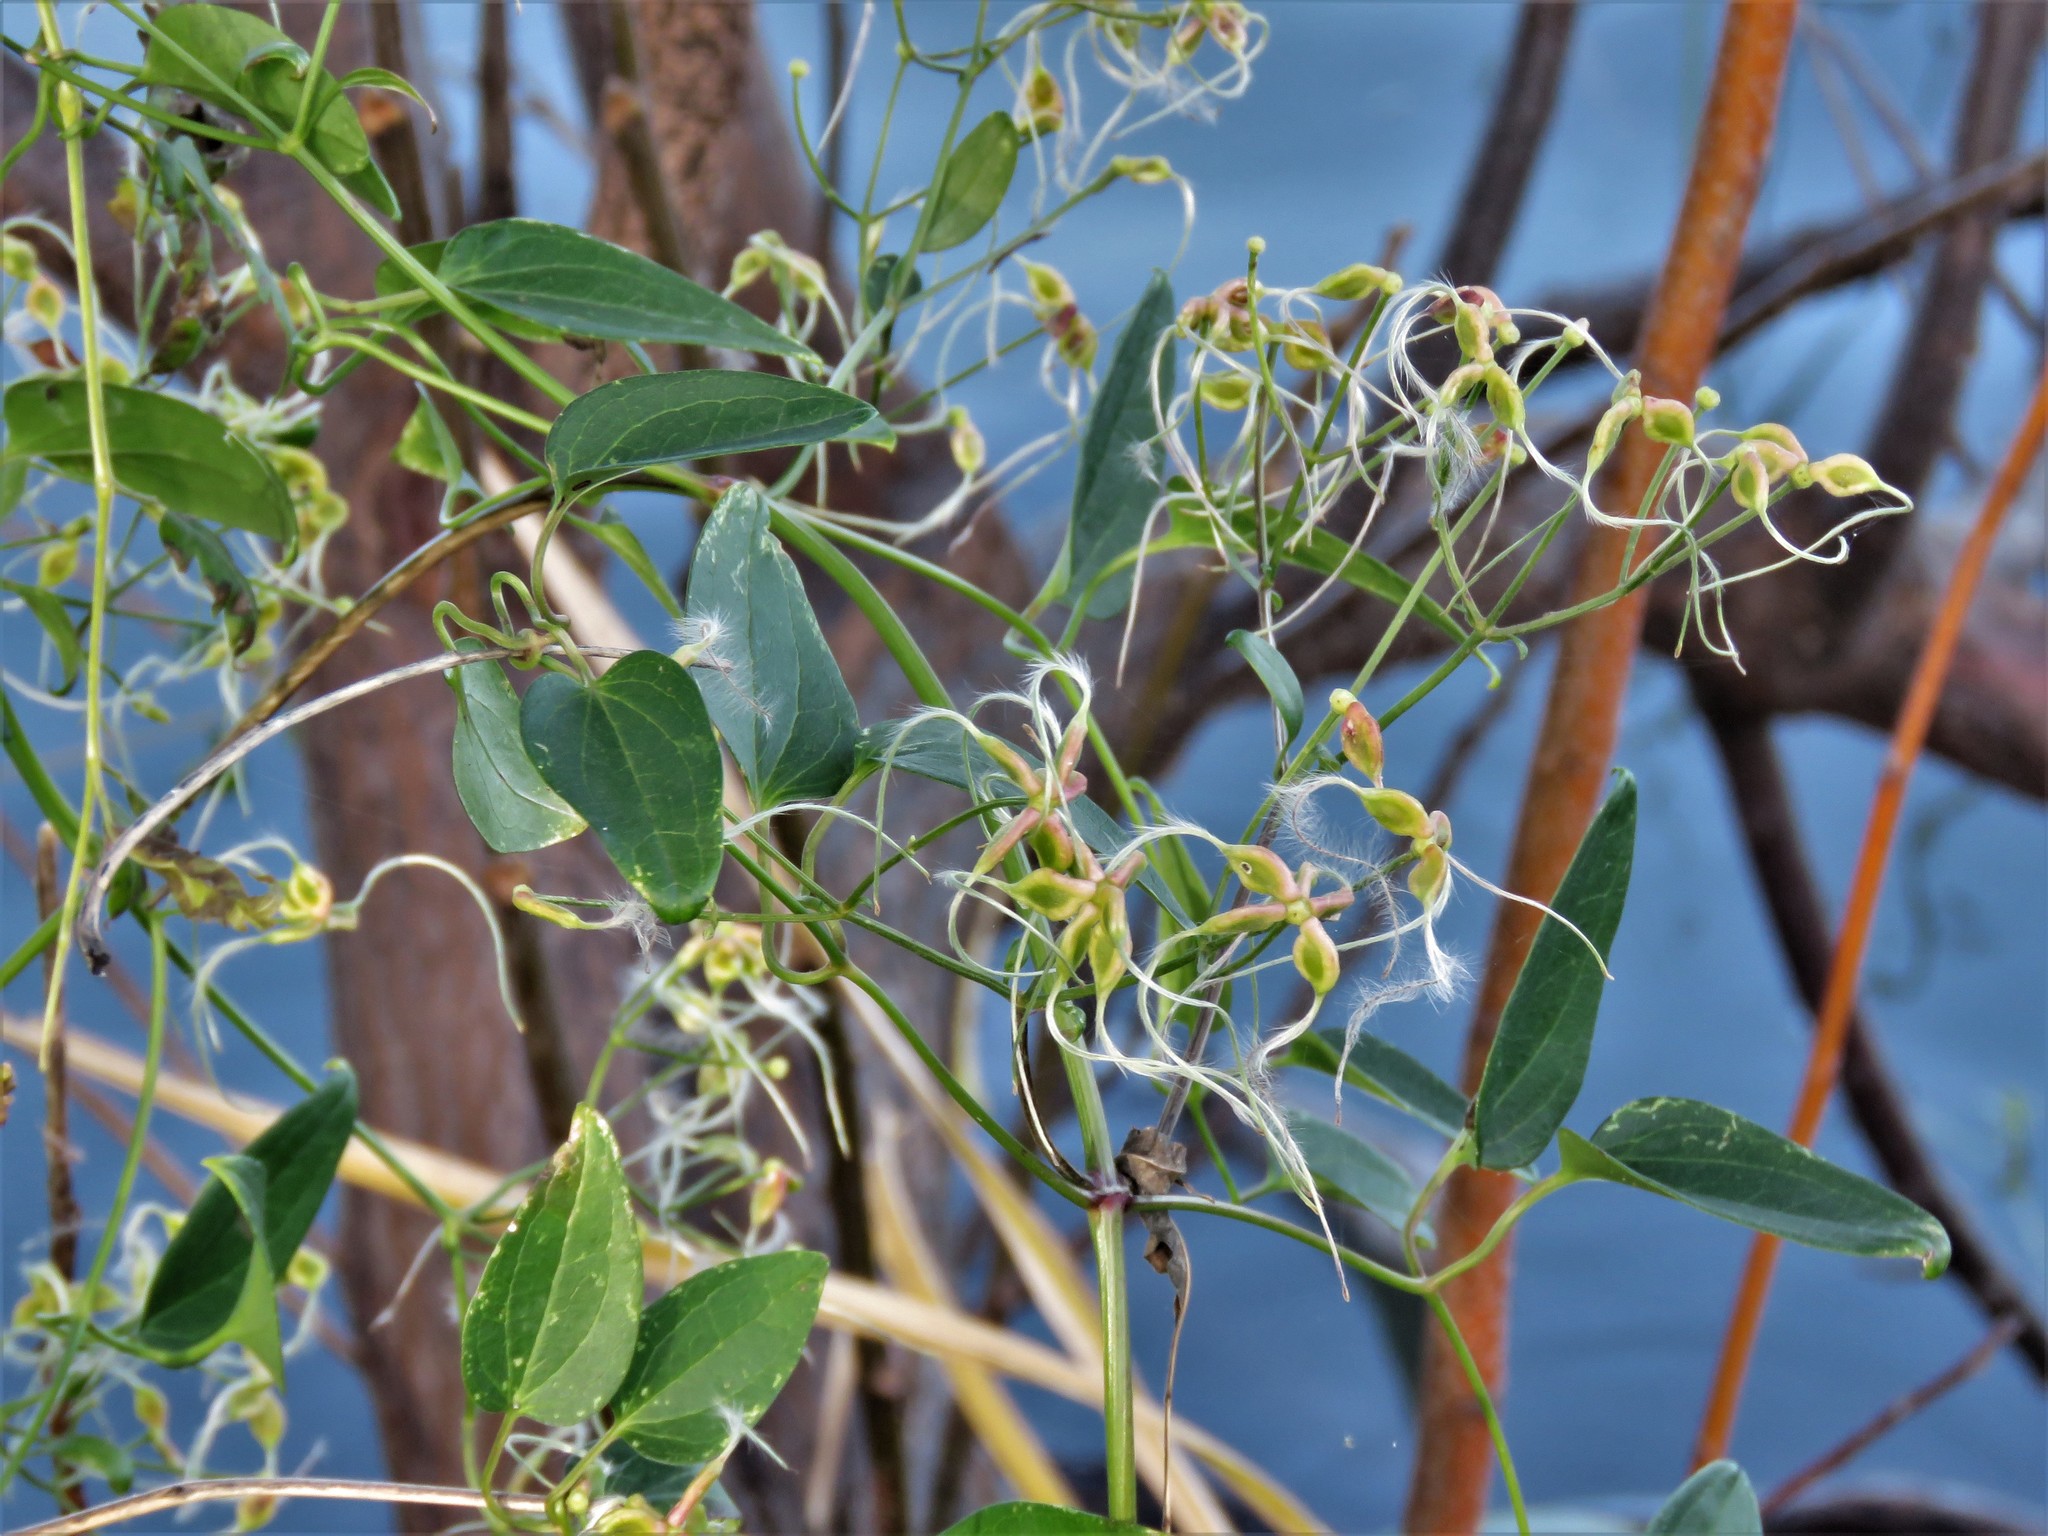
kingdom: Plantae
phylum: Tracheophyta
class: Magnoliopsida
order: Ranunculales
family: Ranunculaceae
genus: Clematis
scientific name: Clematis terniflora
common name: Sweet autumn clematis
